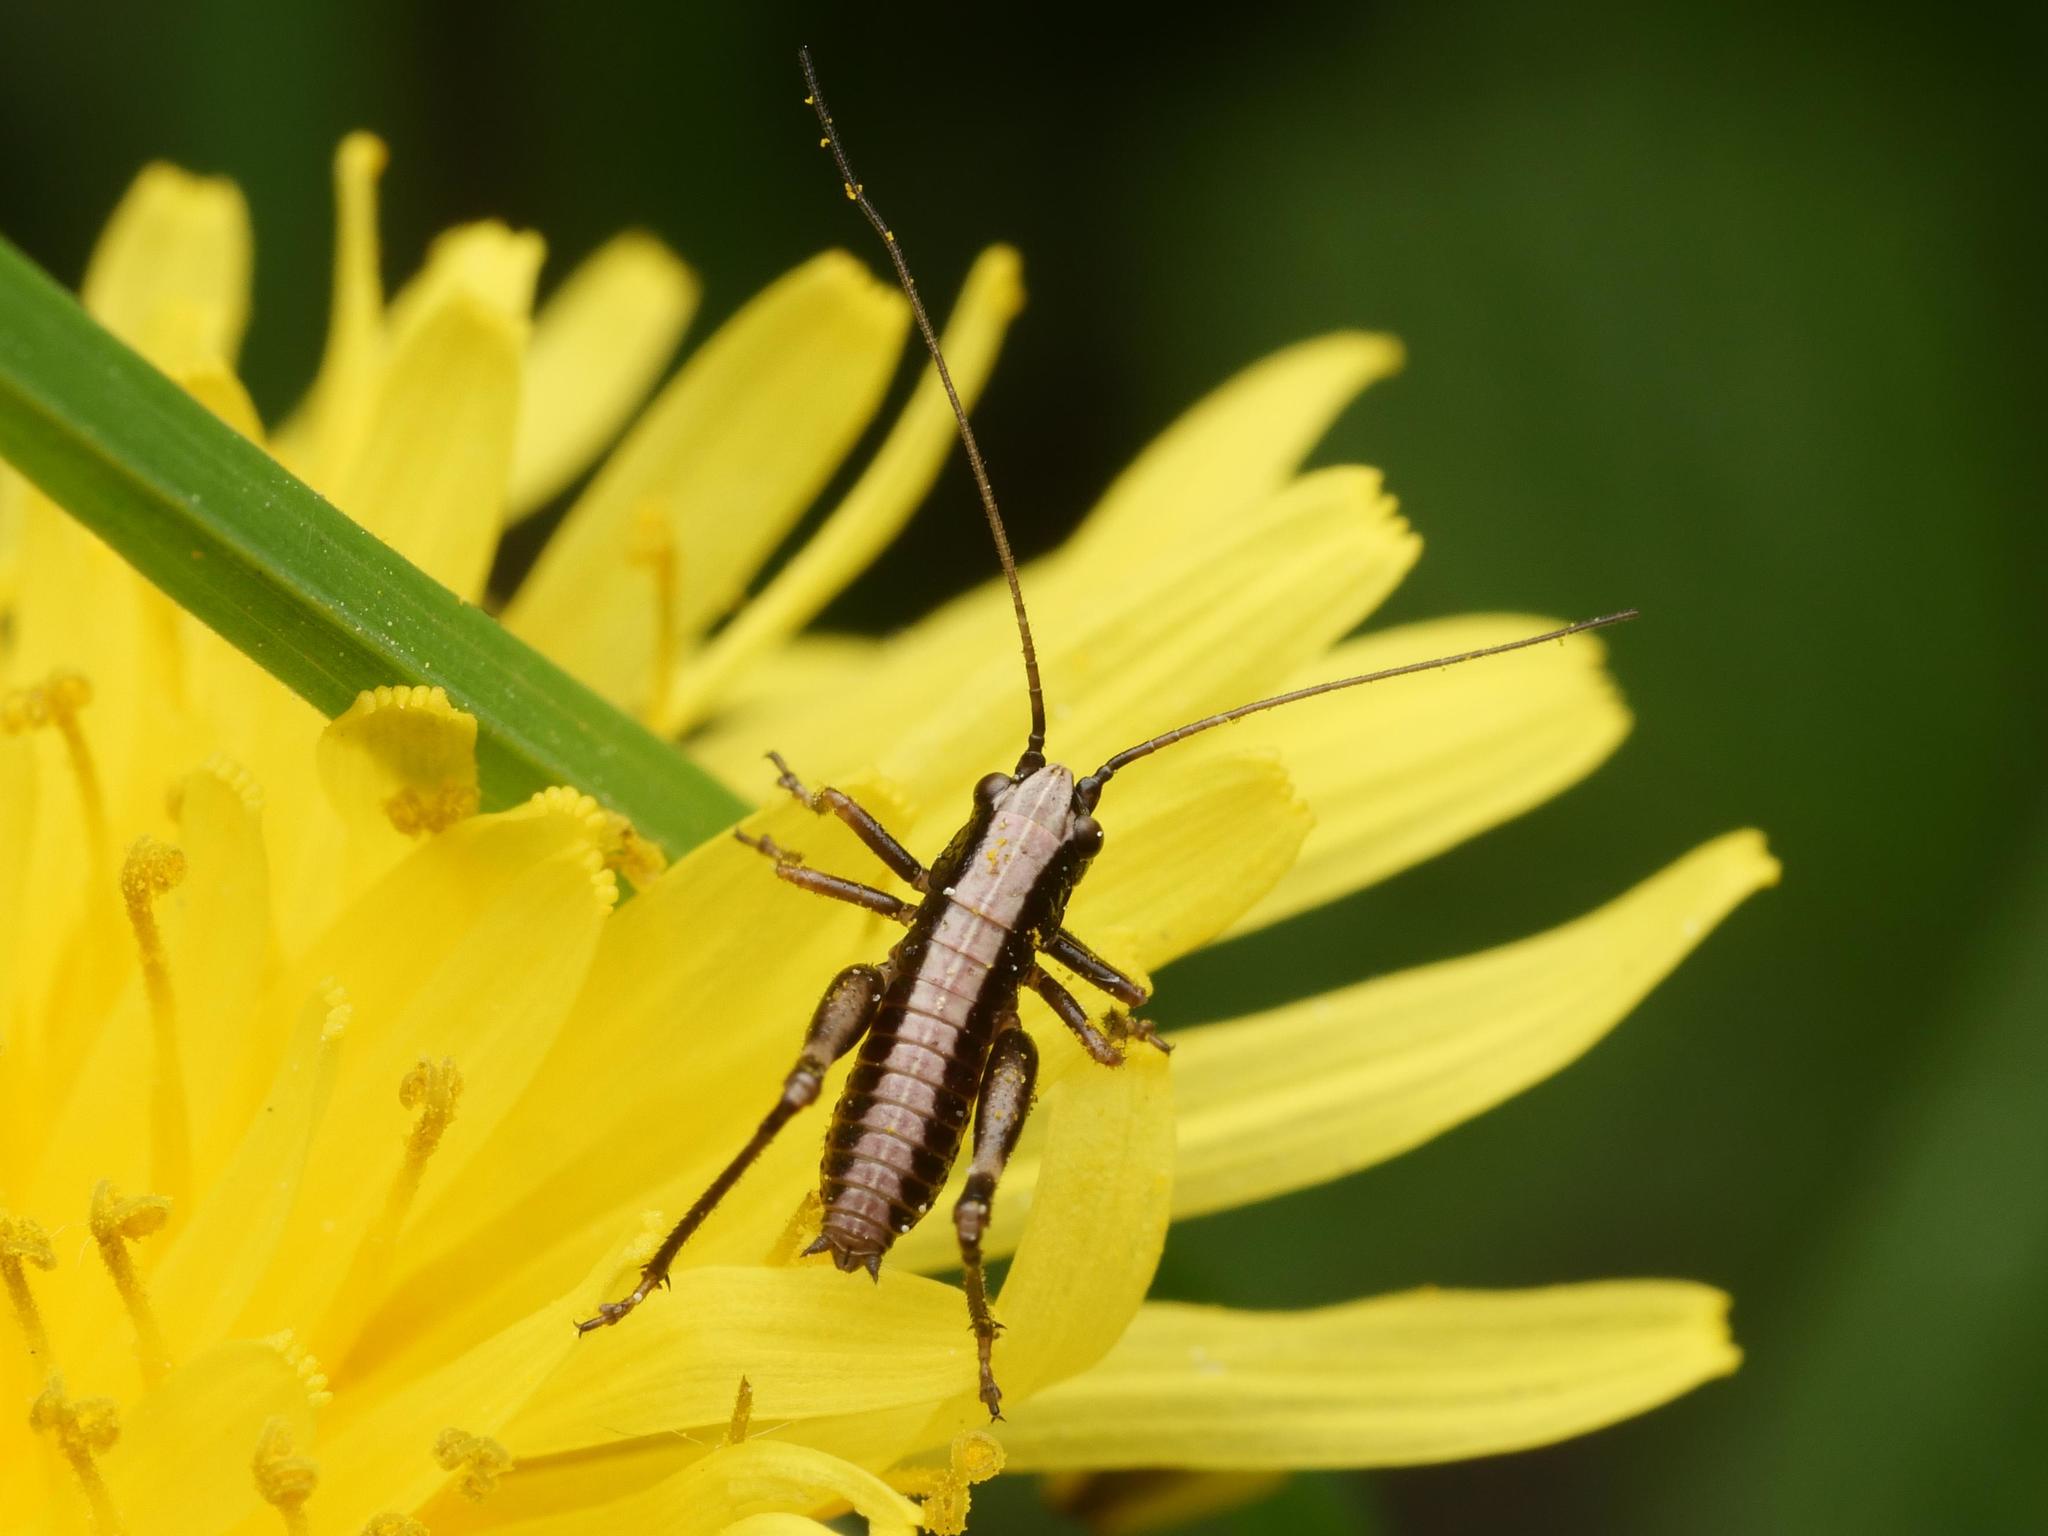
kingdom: Animalia
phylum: Arthropoda
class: Insecta
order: Orthoptera
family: Tettigoniidae
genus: Pholidoptera
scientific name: Pholidoptera griseoaptera
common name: Dark bush-cricket
